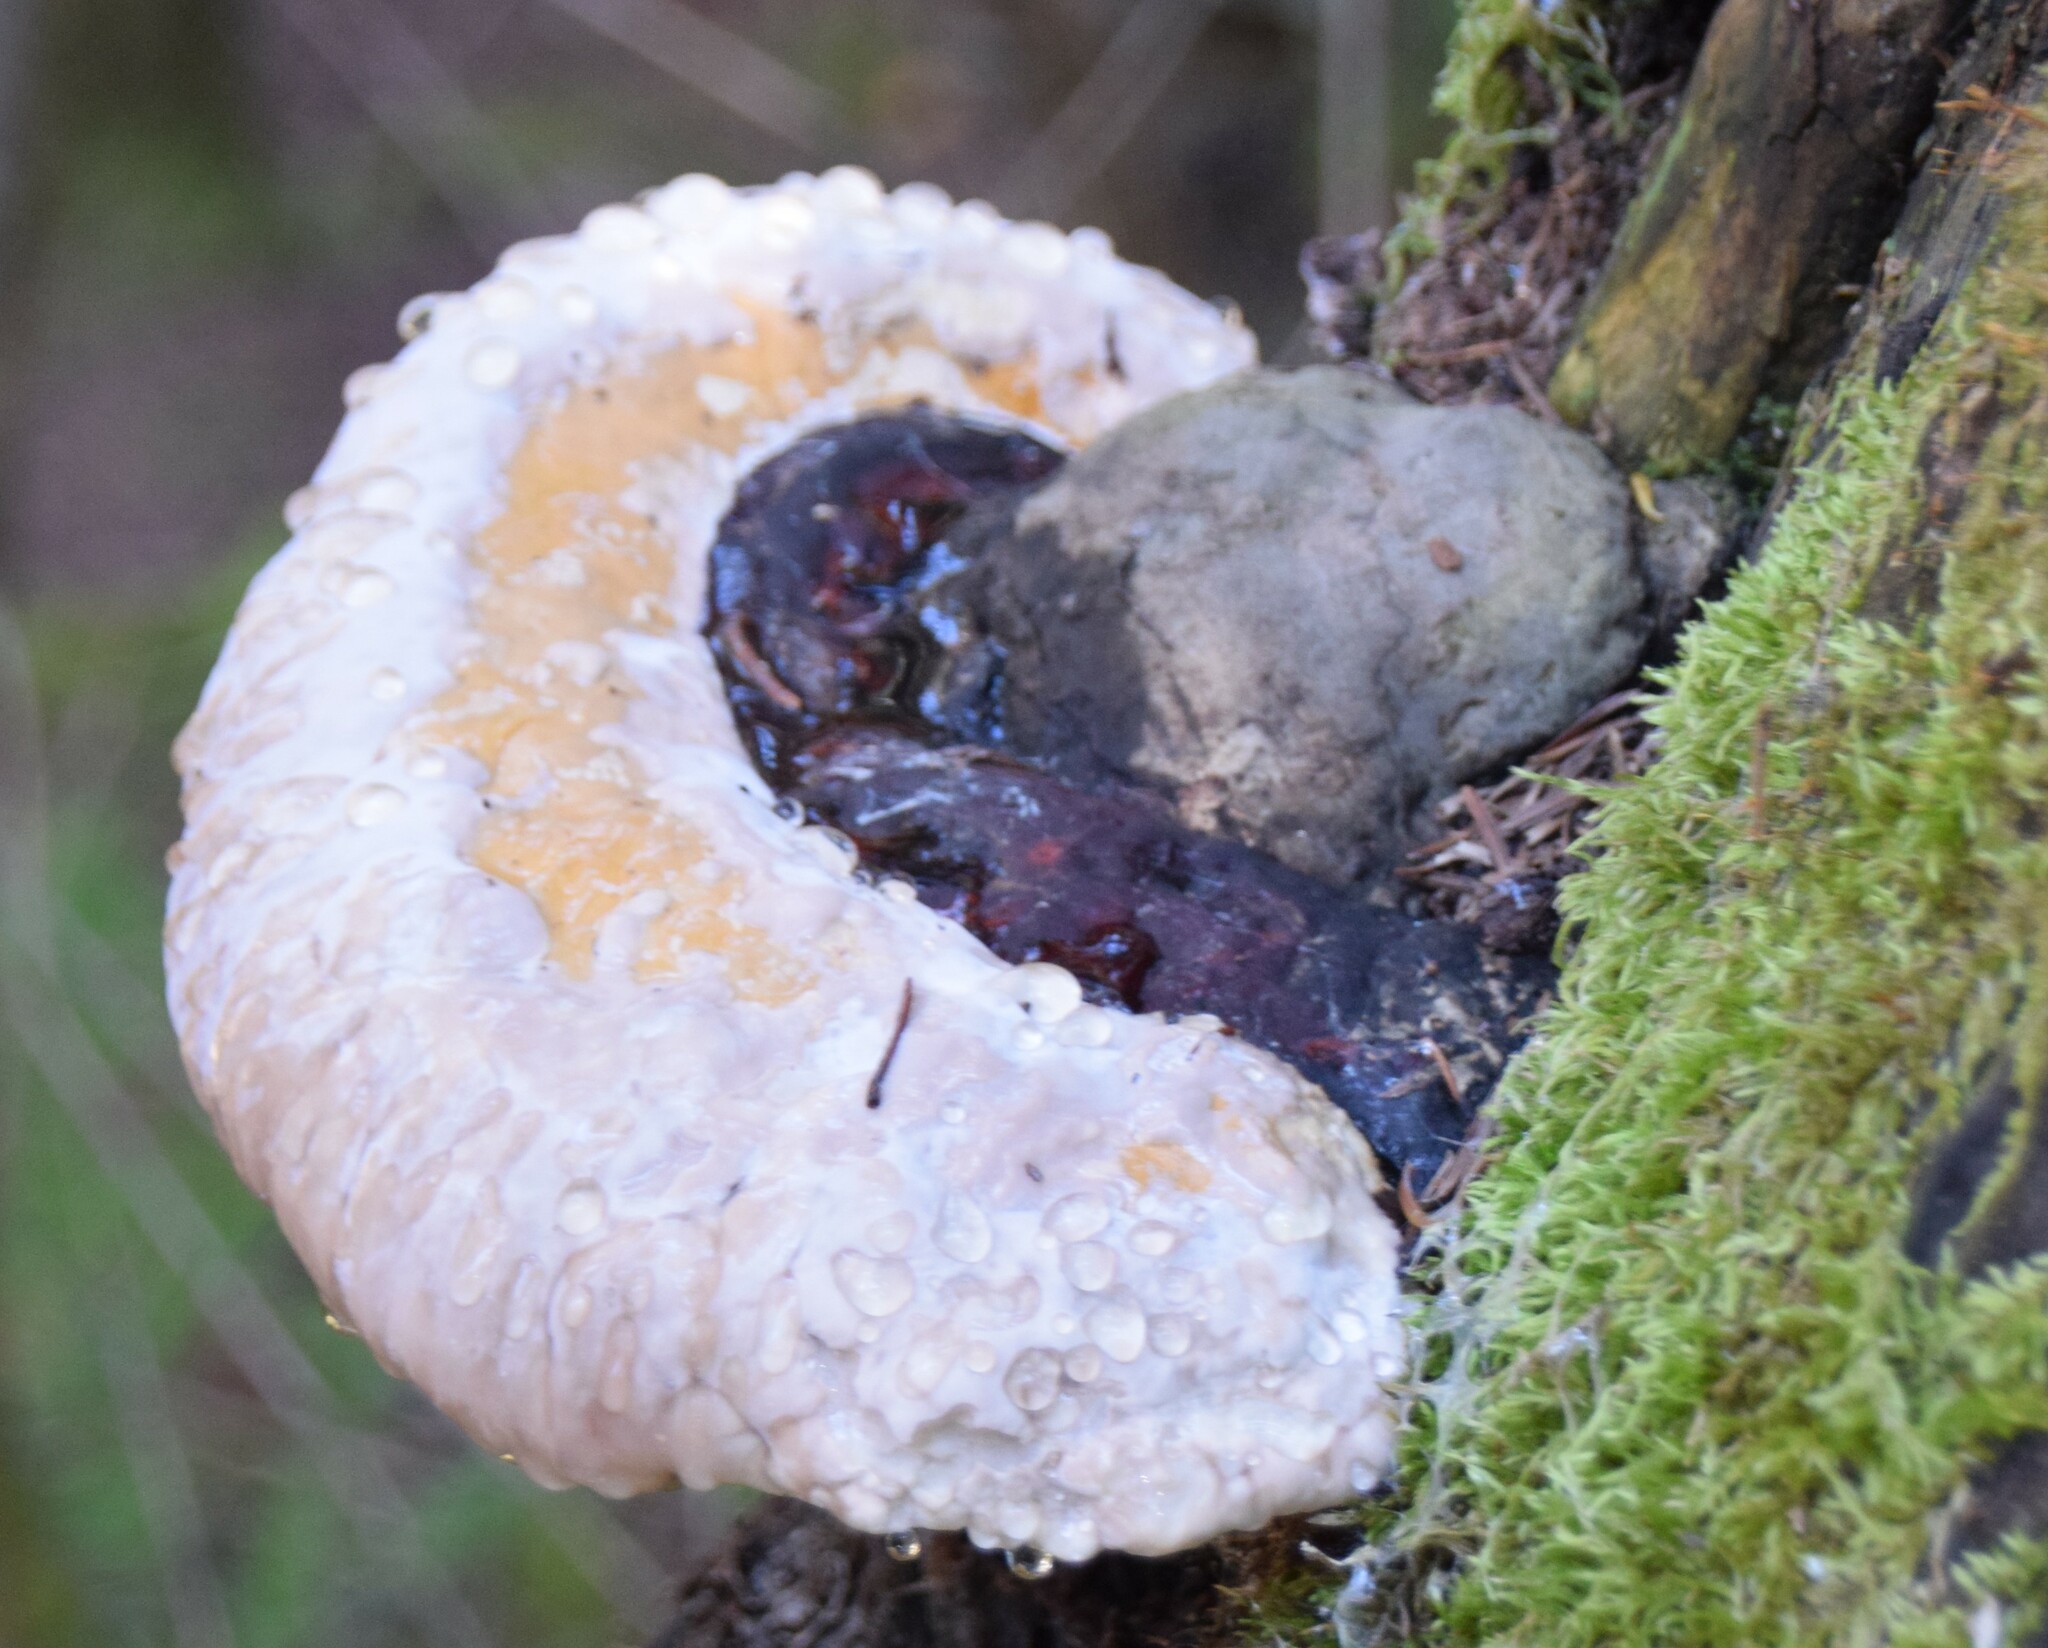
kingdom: Fungi
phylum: Basidiomycota
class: Agaricomycetes
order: Polyporales
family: Fomitopsidaceae
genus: Fomitopsis
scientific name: Fomitopsis mounceae
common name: Northern red belt
